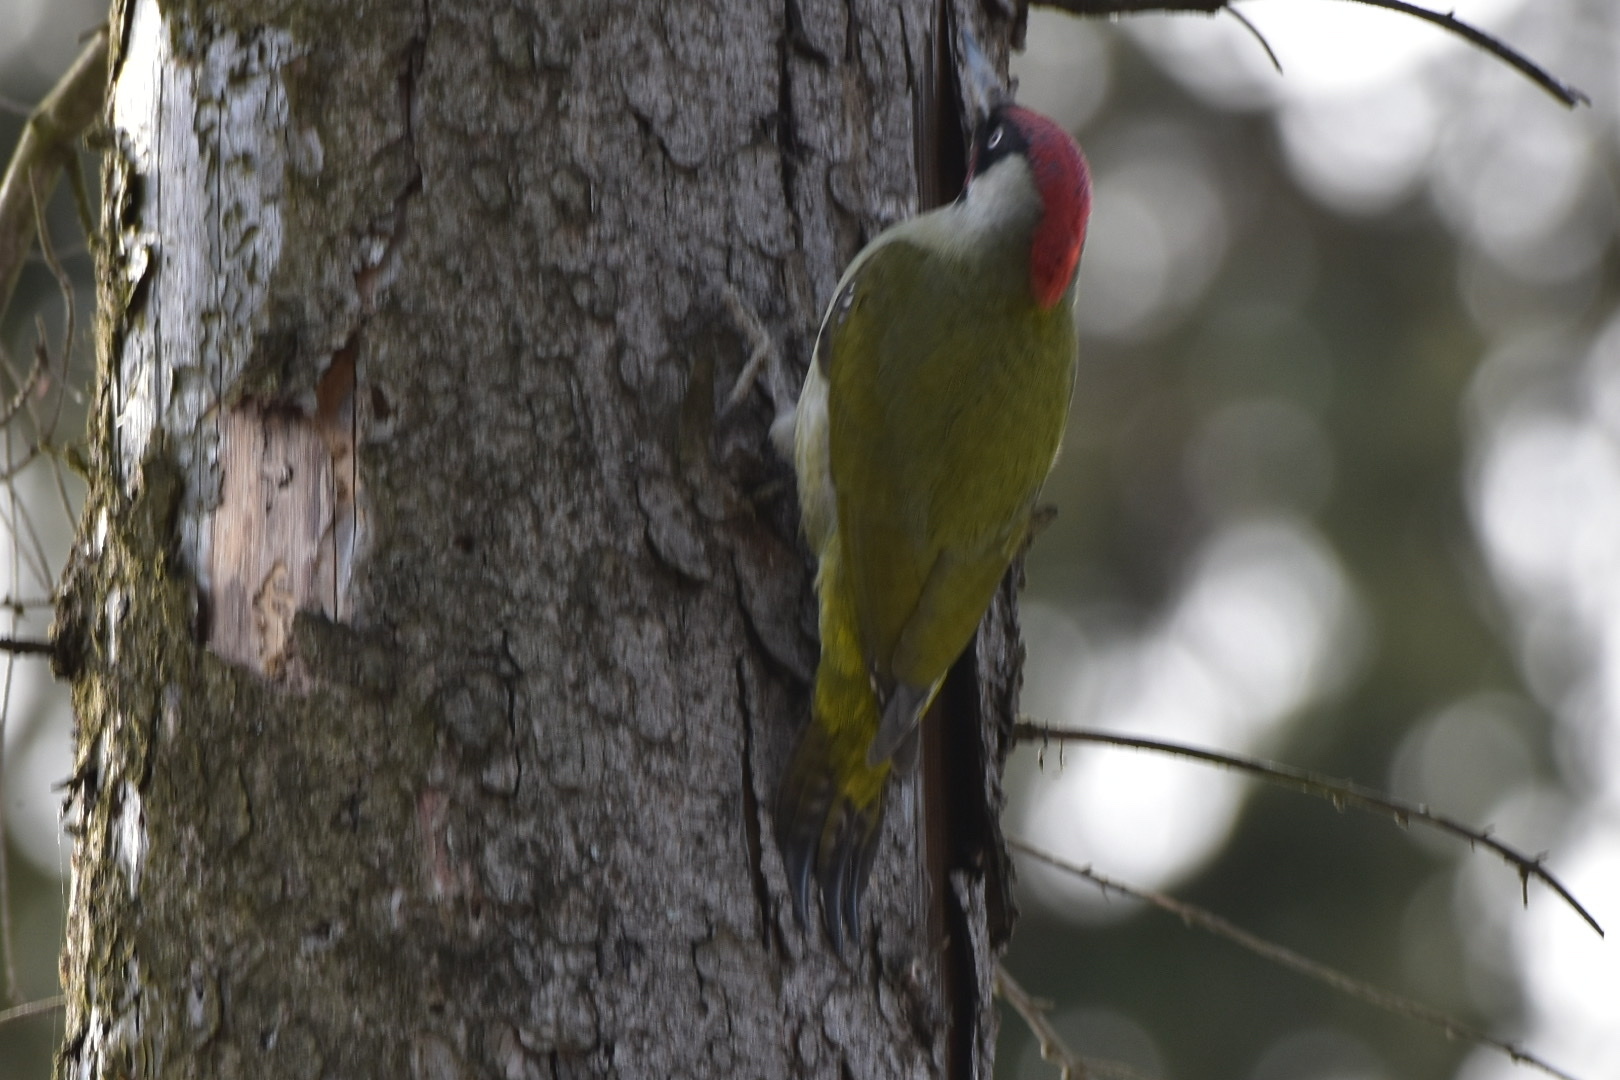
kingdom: Animalia
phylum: Chordata
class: Aves
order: Piciformes
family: Picidae
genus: Picus
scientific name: Picus viridis
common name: European green woodpecker
